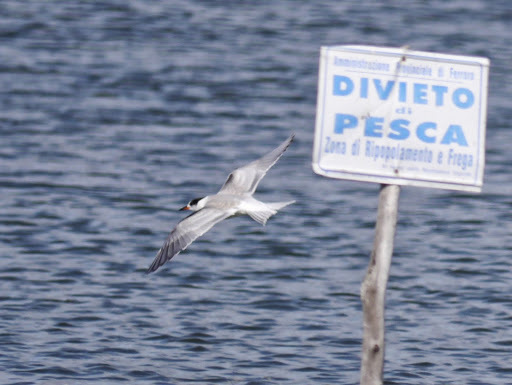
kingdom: Animalia
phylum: Chordata
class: Aves
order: Charadriiformes
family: Laridae
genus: Sterna
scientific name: Sterna hirundo
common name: Common tern
